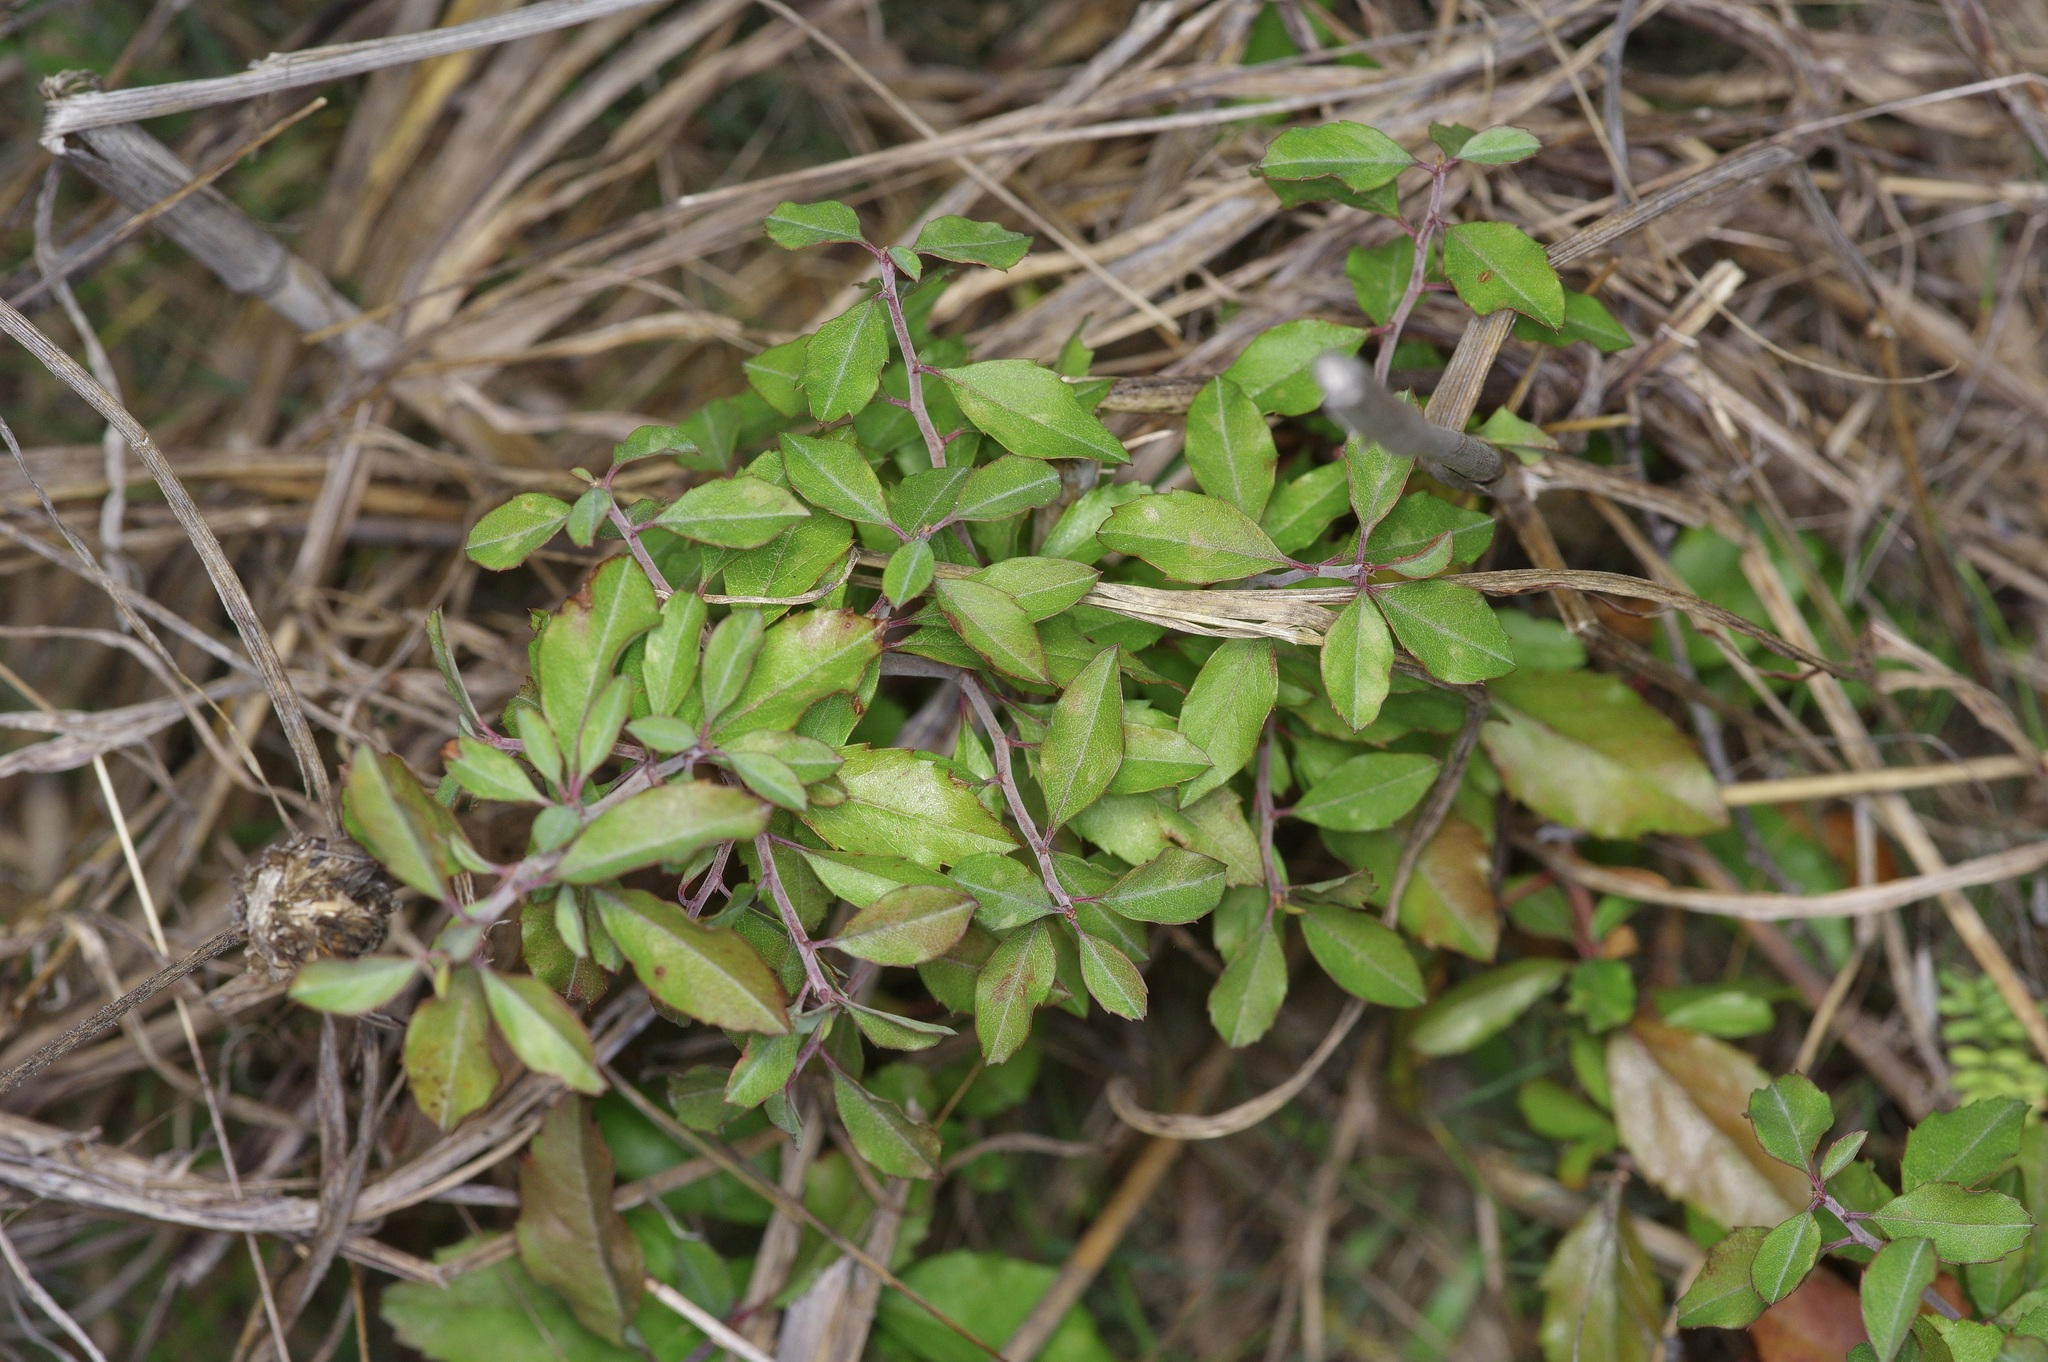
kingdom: Plantae
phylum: Tracheophyta
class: Magnoliopsida
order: Rosales
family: Rosaceae
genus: Prunus
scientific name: Prunus minutiflora
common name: Texas almond
